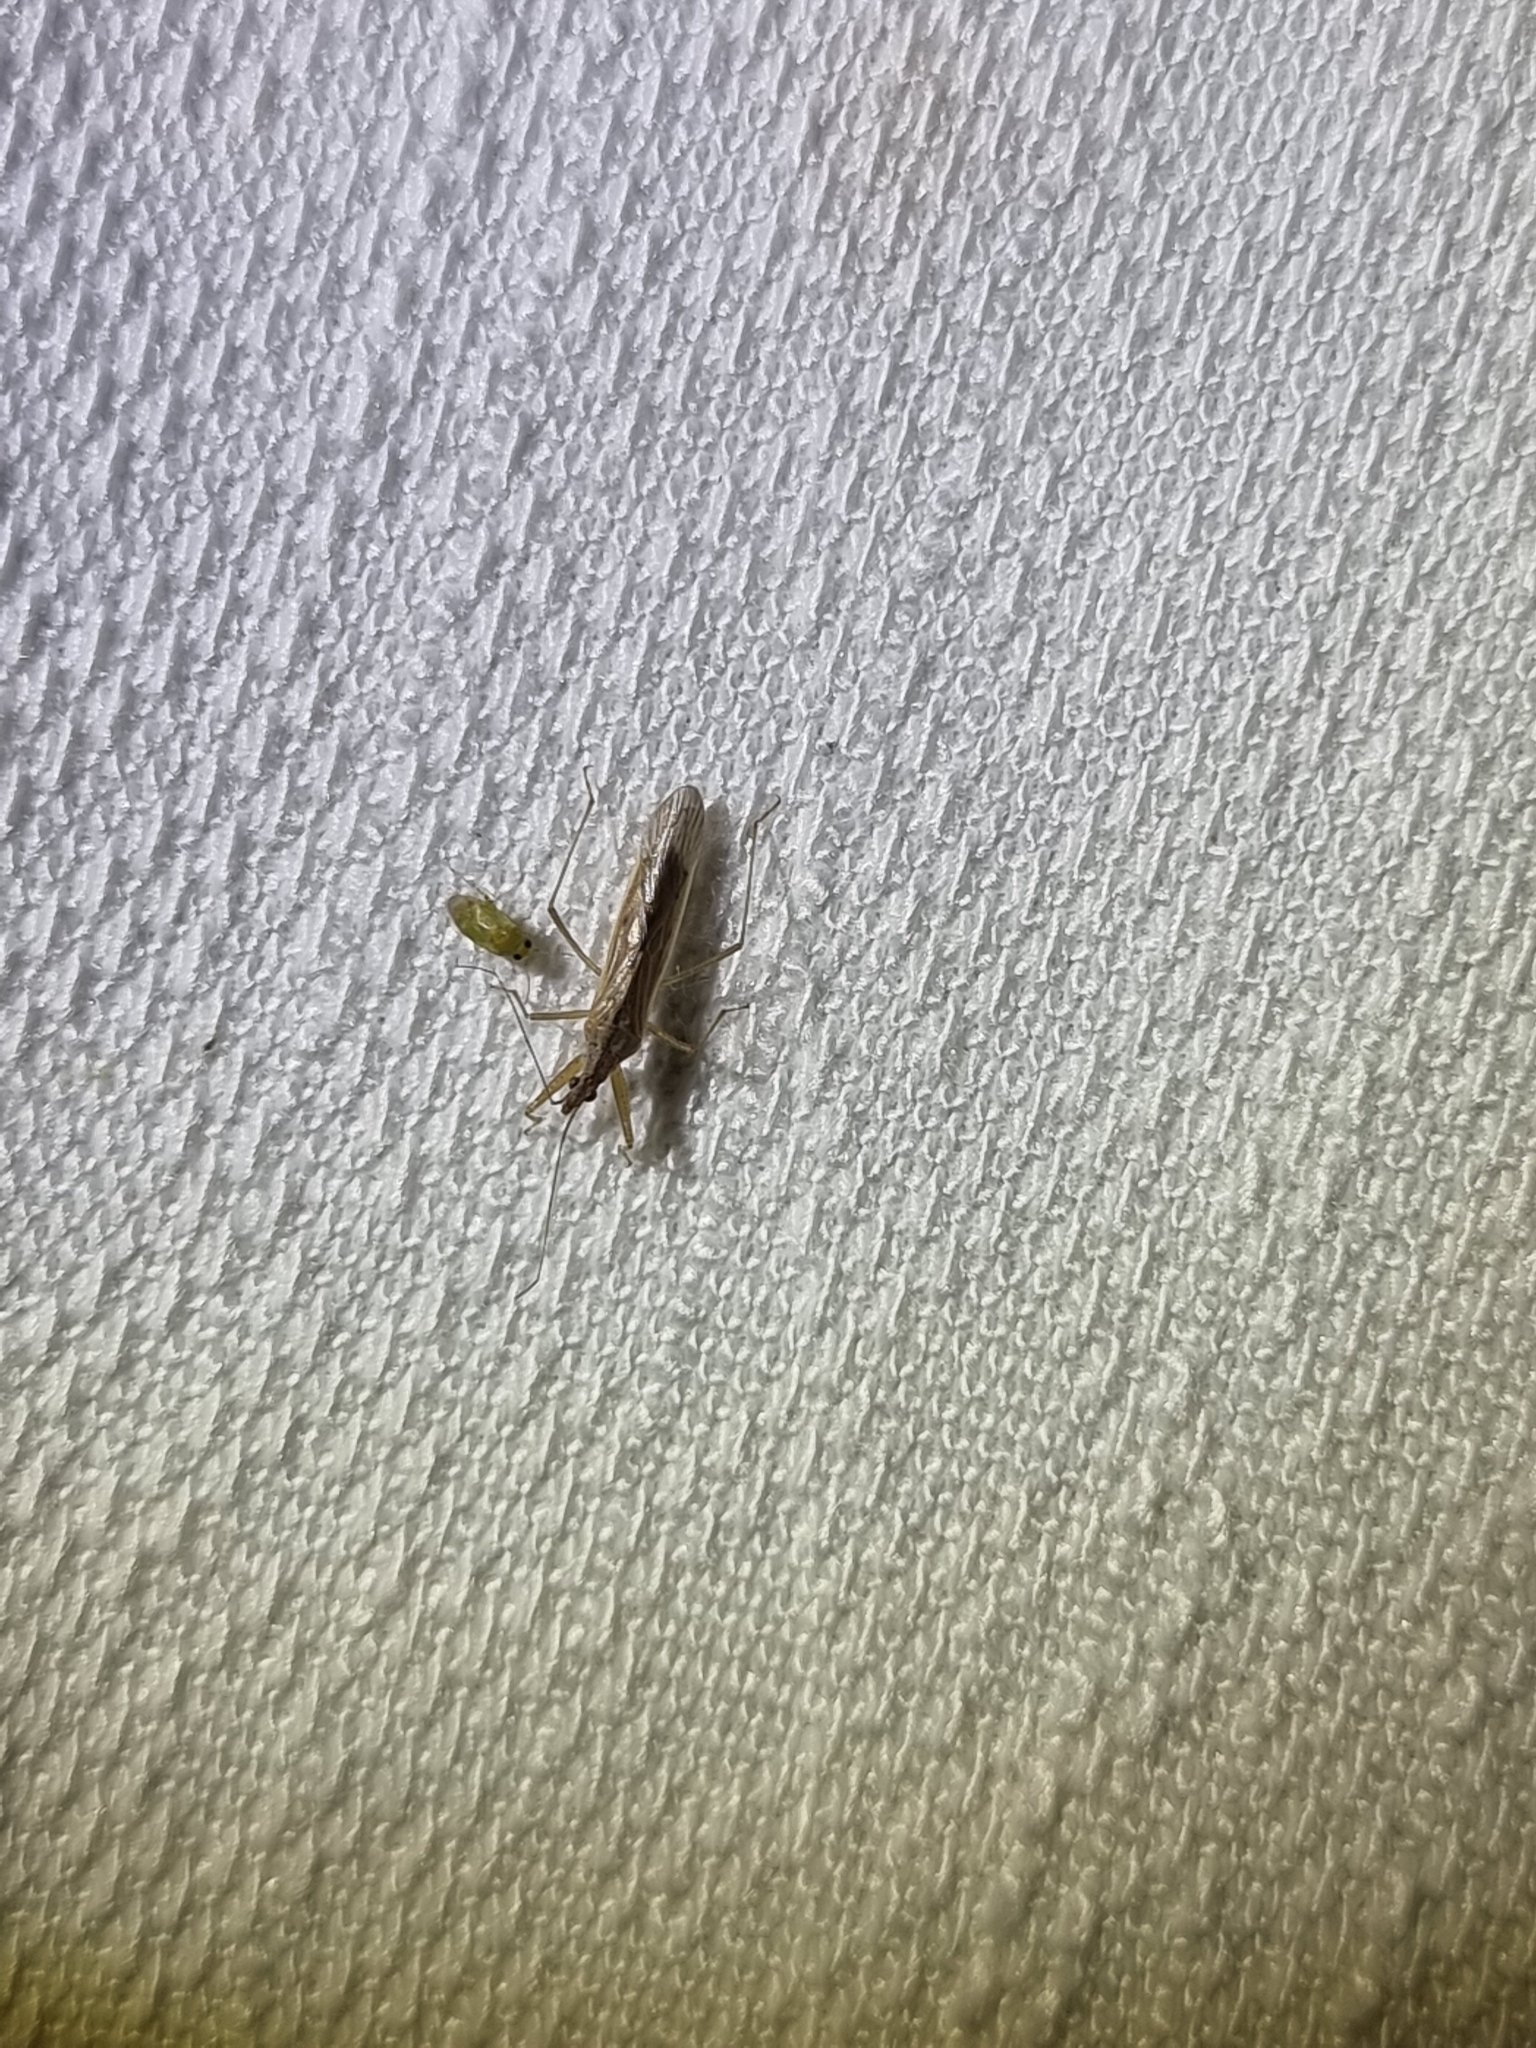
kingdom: Animalia
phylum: Arthropoda
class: Insecta
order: Hemiptera
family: Nabidae
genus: Nabis
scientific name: Nabis kinbergii
